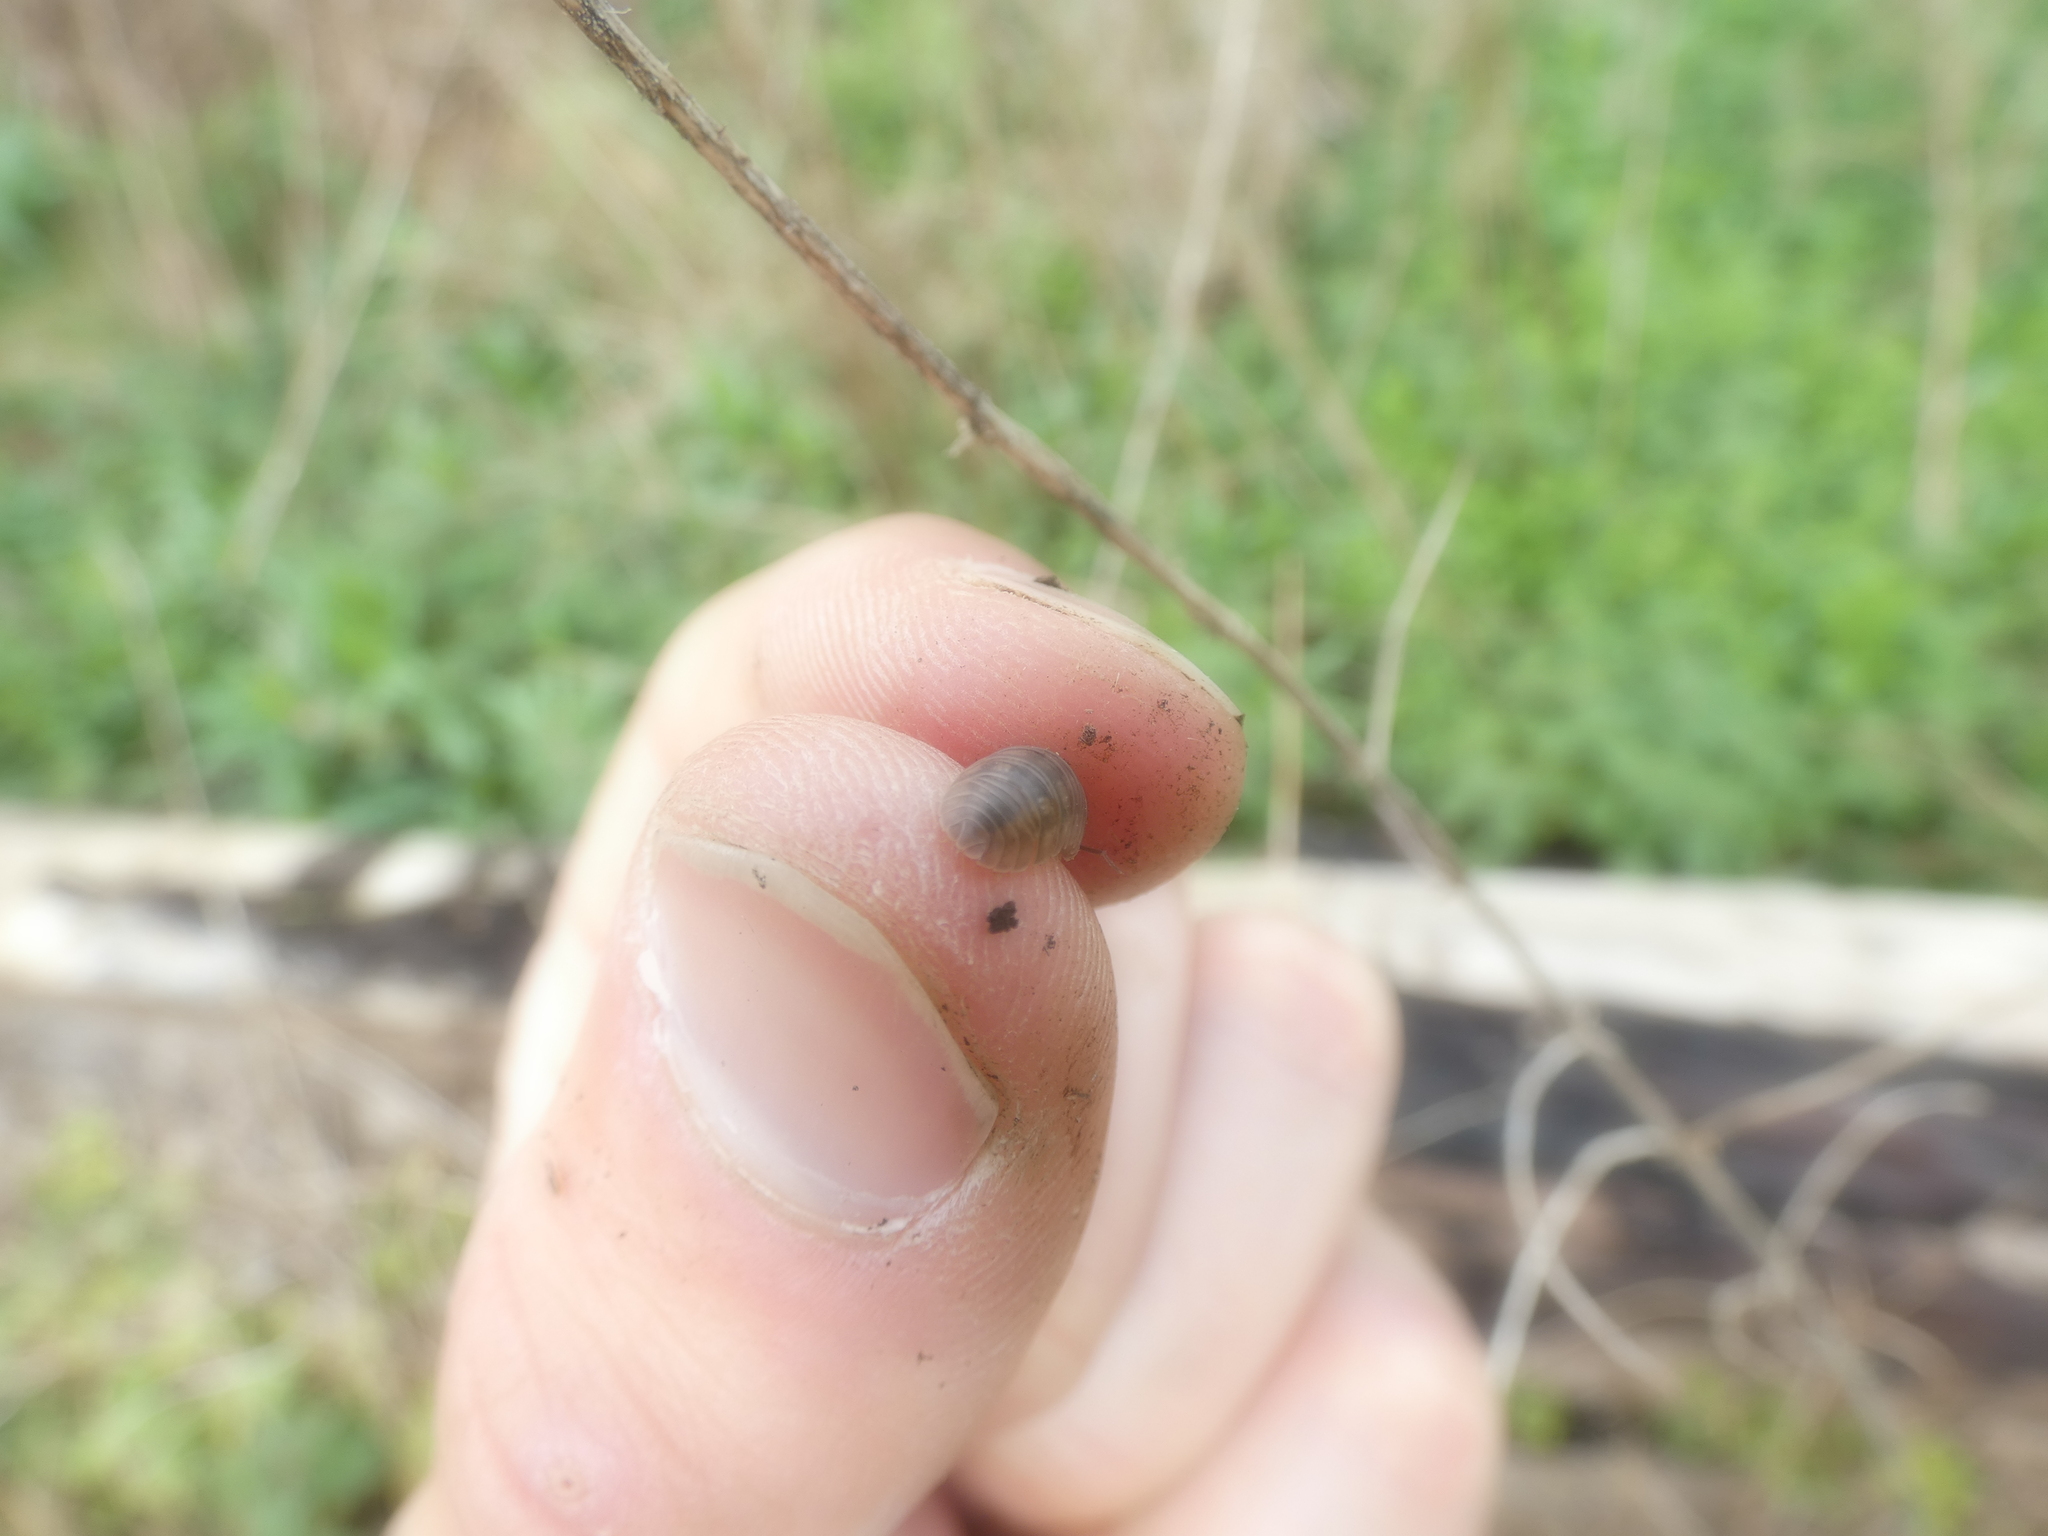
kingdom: Animalia
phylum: Arthropoda
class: Malacostraca
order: Isopoda
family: Armadillidiidae
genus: Armadillidium
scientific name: Armadillidium nasatum
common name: Isopod
